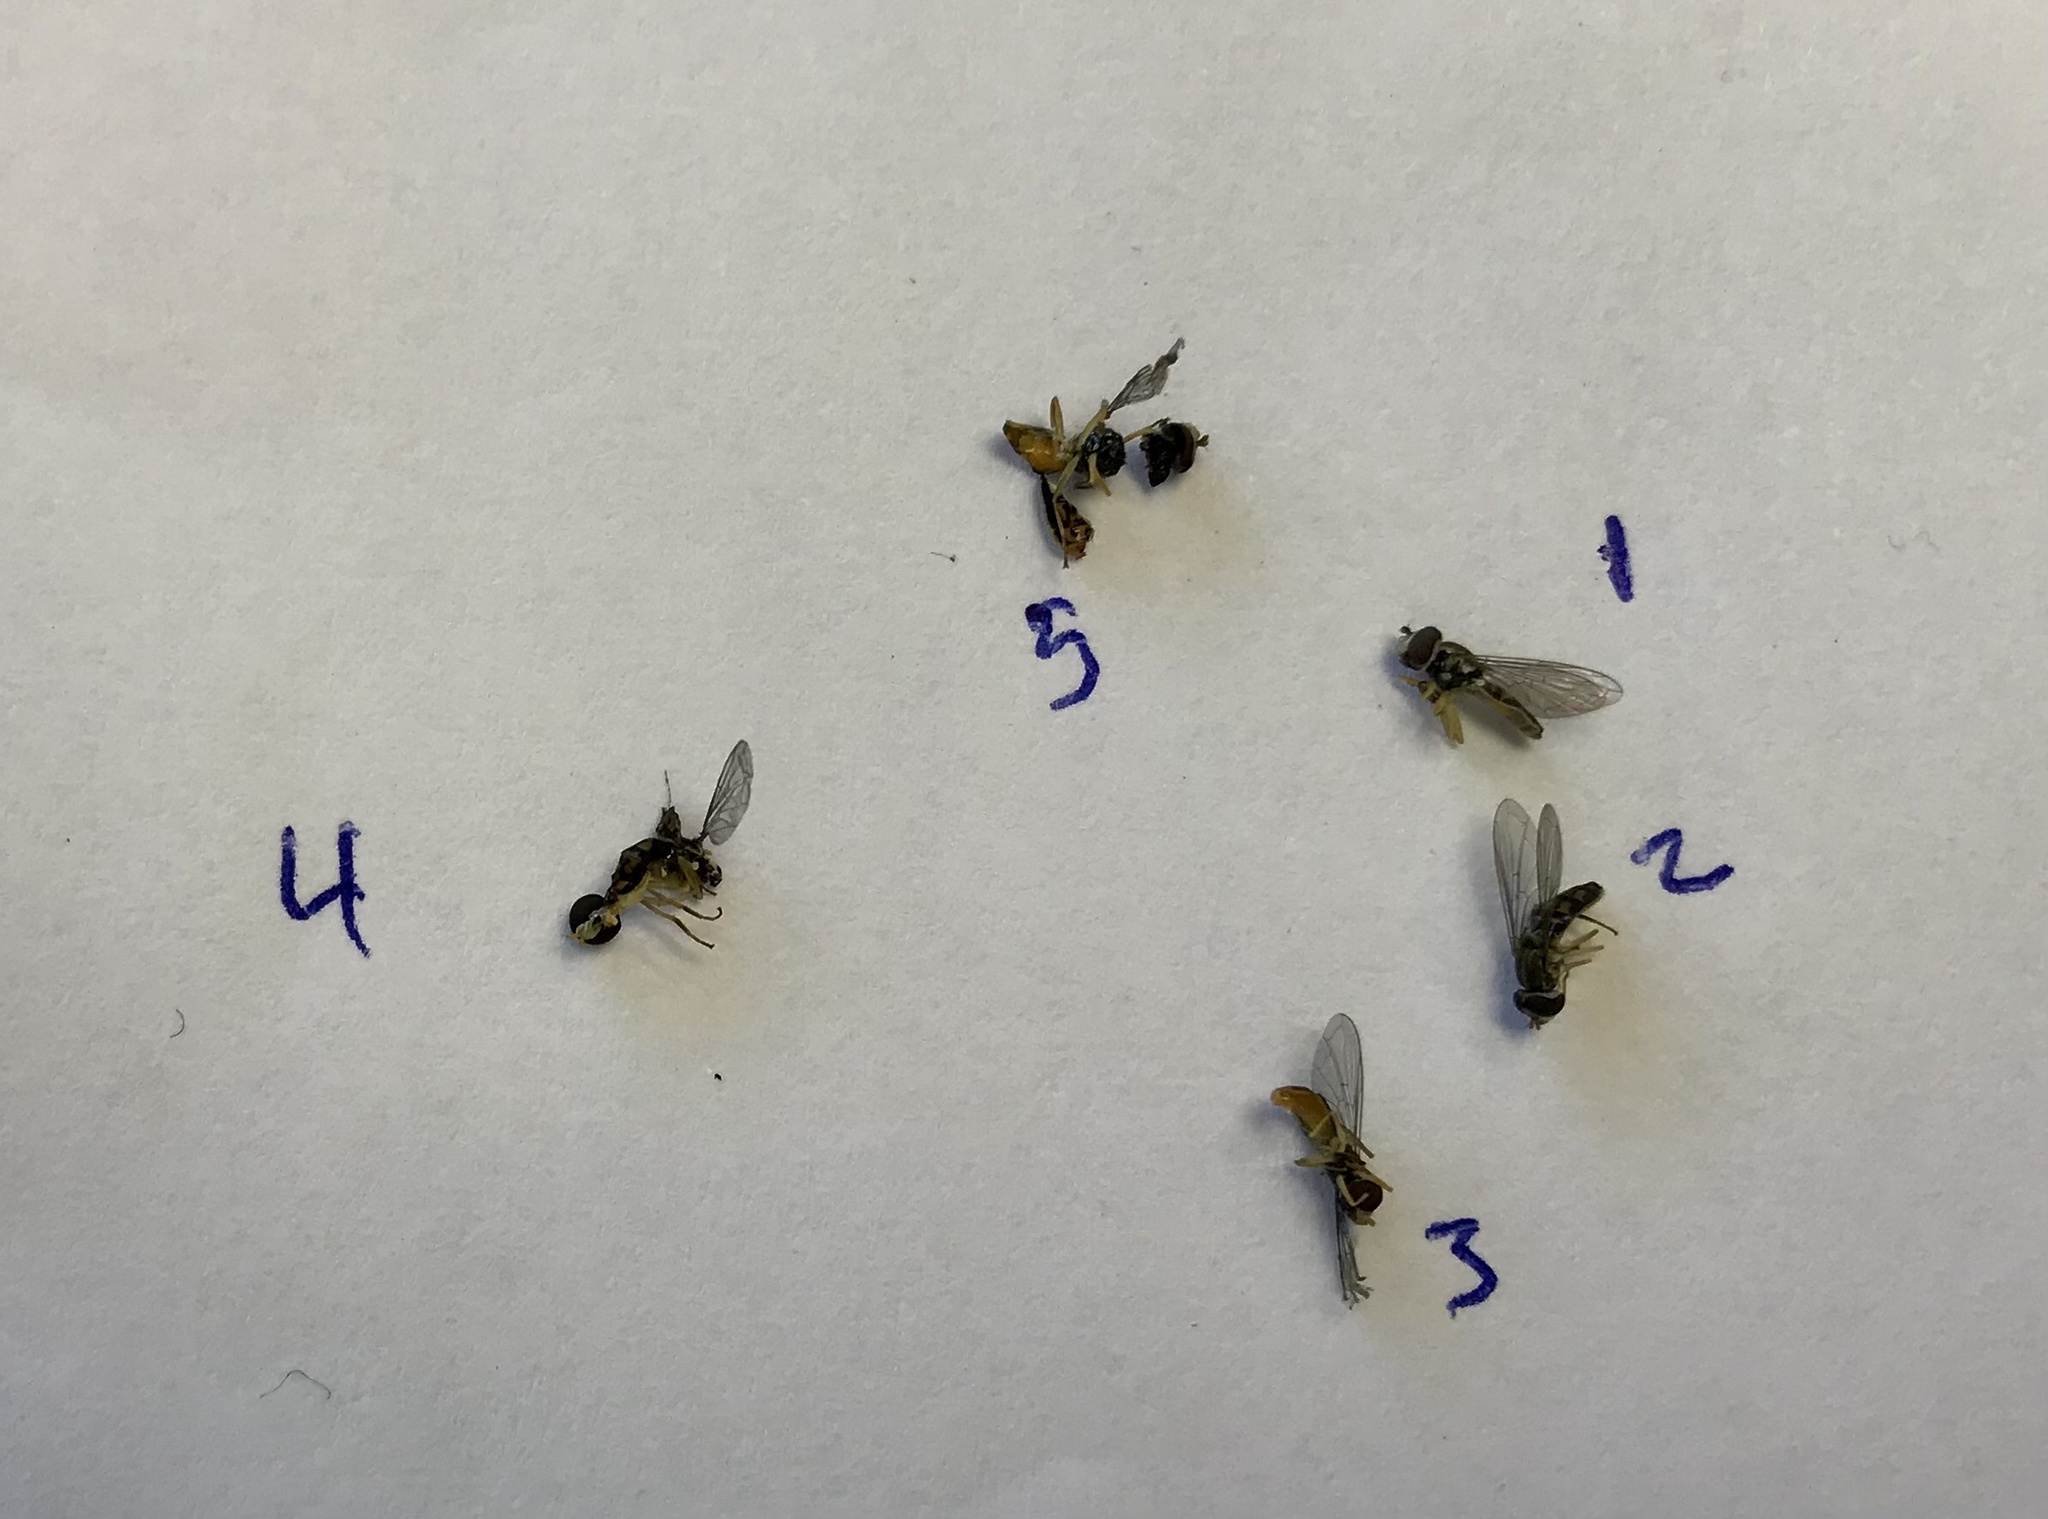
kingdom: Animalia
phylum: Arthropoda
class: Insecta
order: Diptera
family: Syrphidae
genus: Toxomerus
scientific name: Toxomerus marginatus
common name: Syrphid fly
